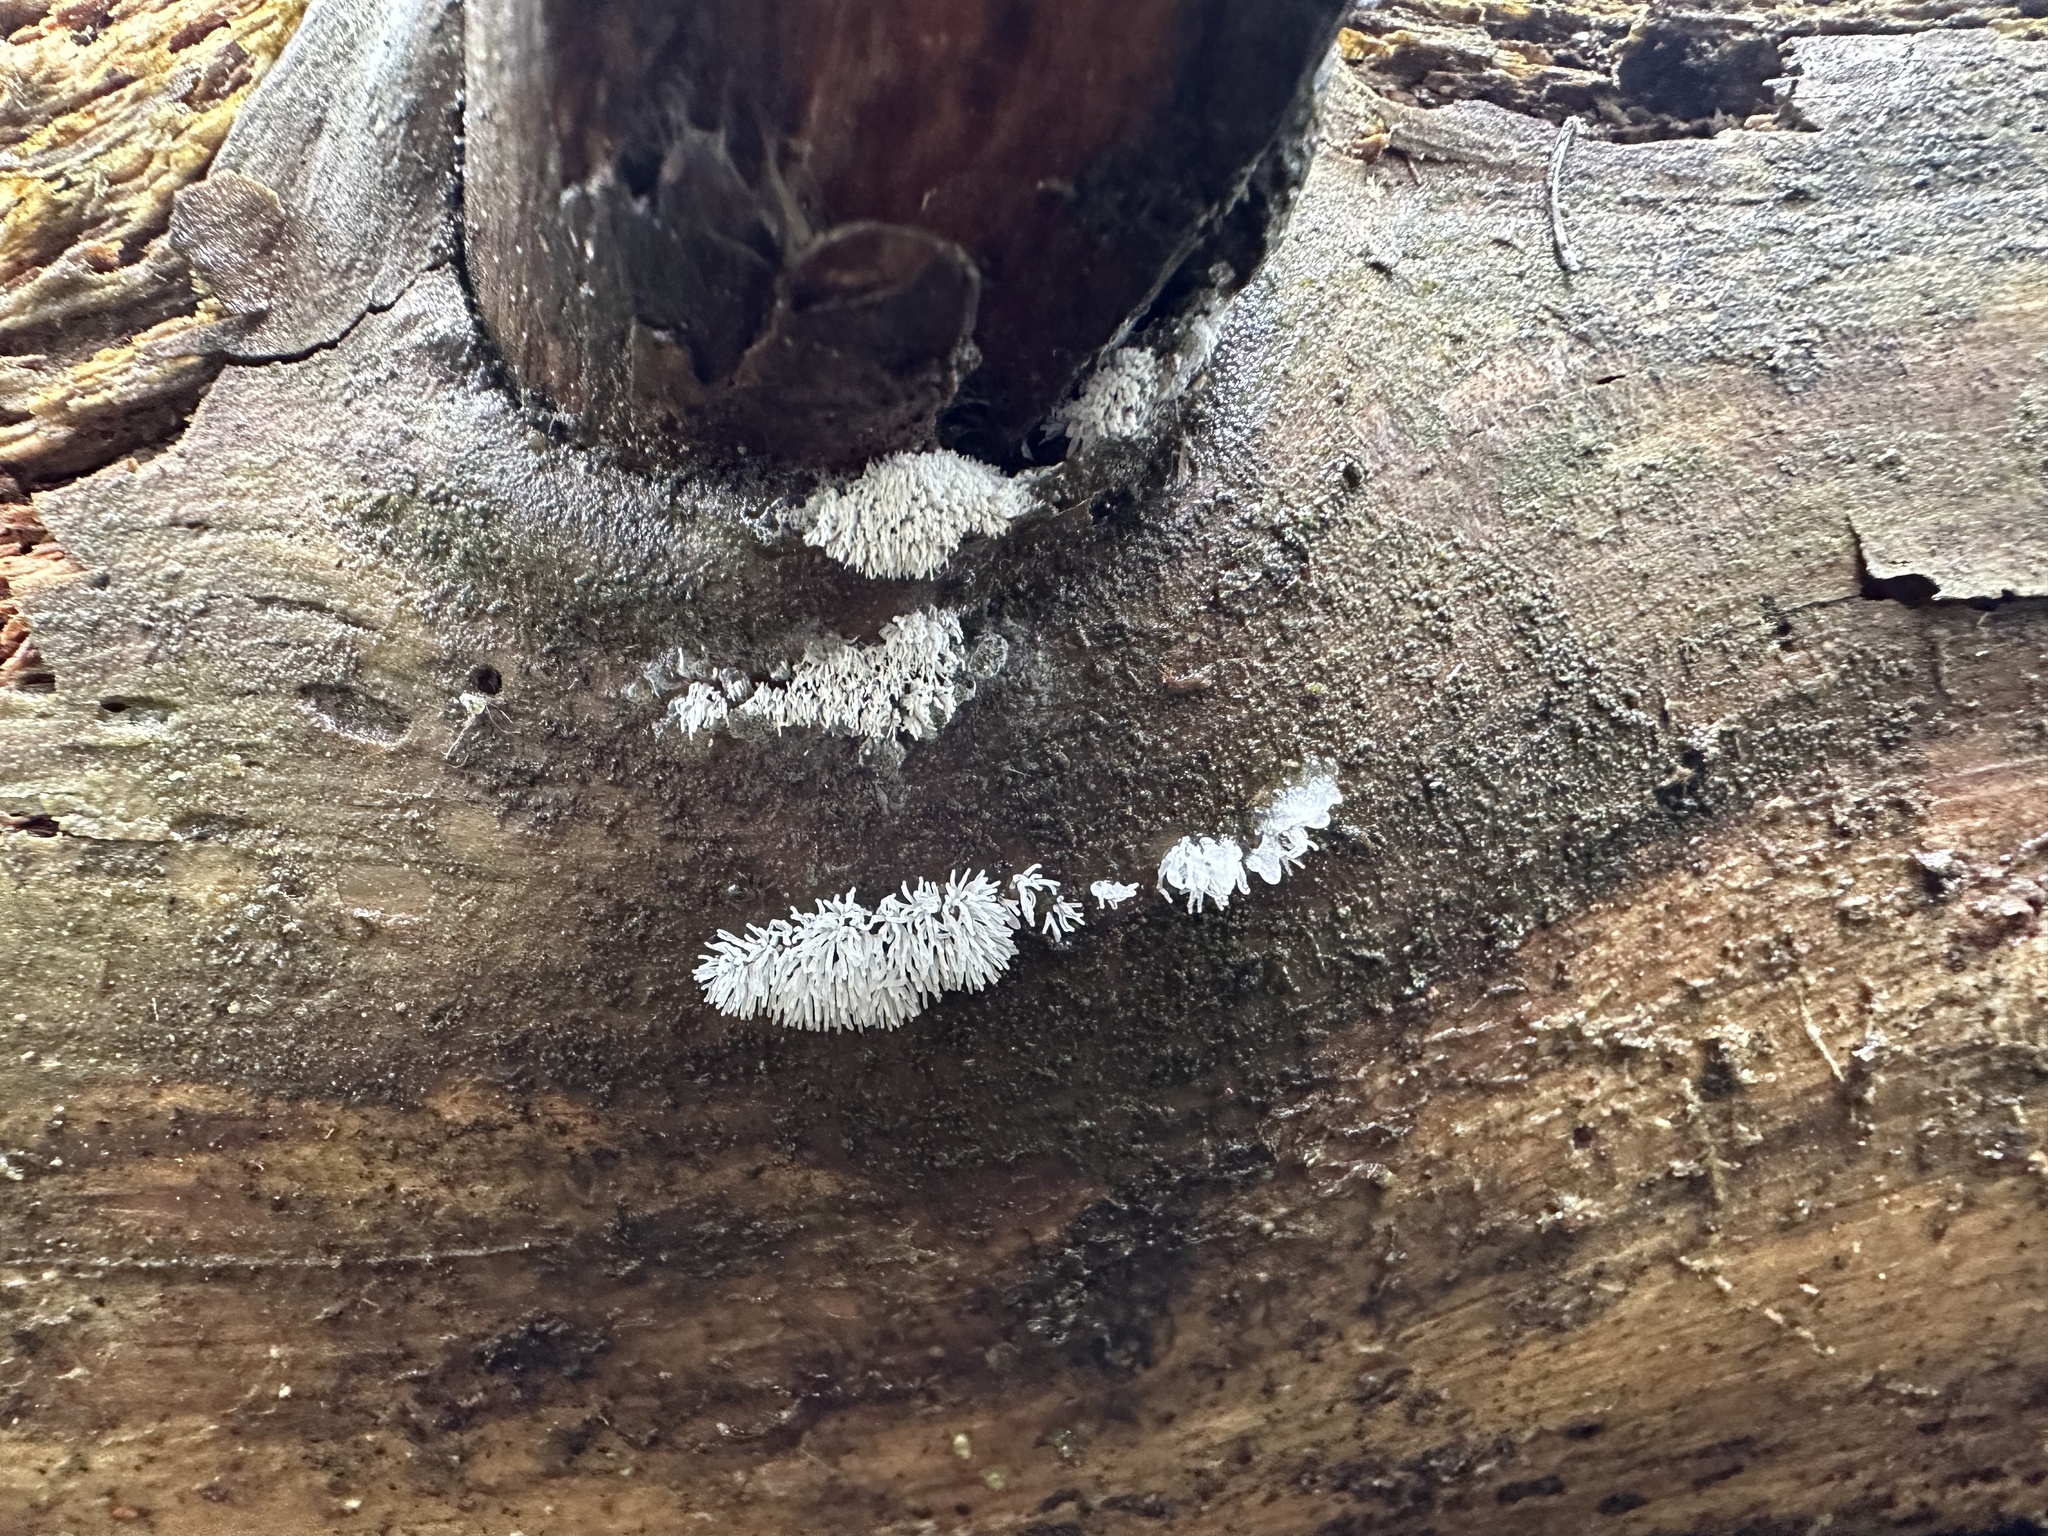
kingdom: Protozoa
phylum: Mycetozoa
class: Protosteliomycetes
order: Ceratiomyxales
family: Ceratiomyxaceae
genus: Ceratiomyxa
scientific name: Ceratiomyxa fruticulosa
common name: Honeycomb coral slime mold
